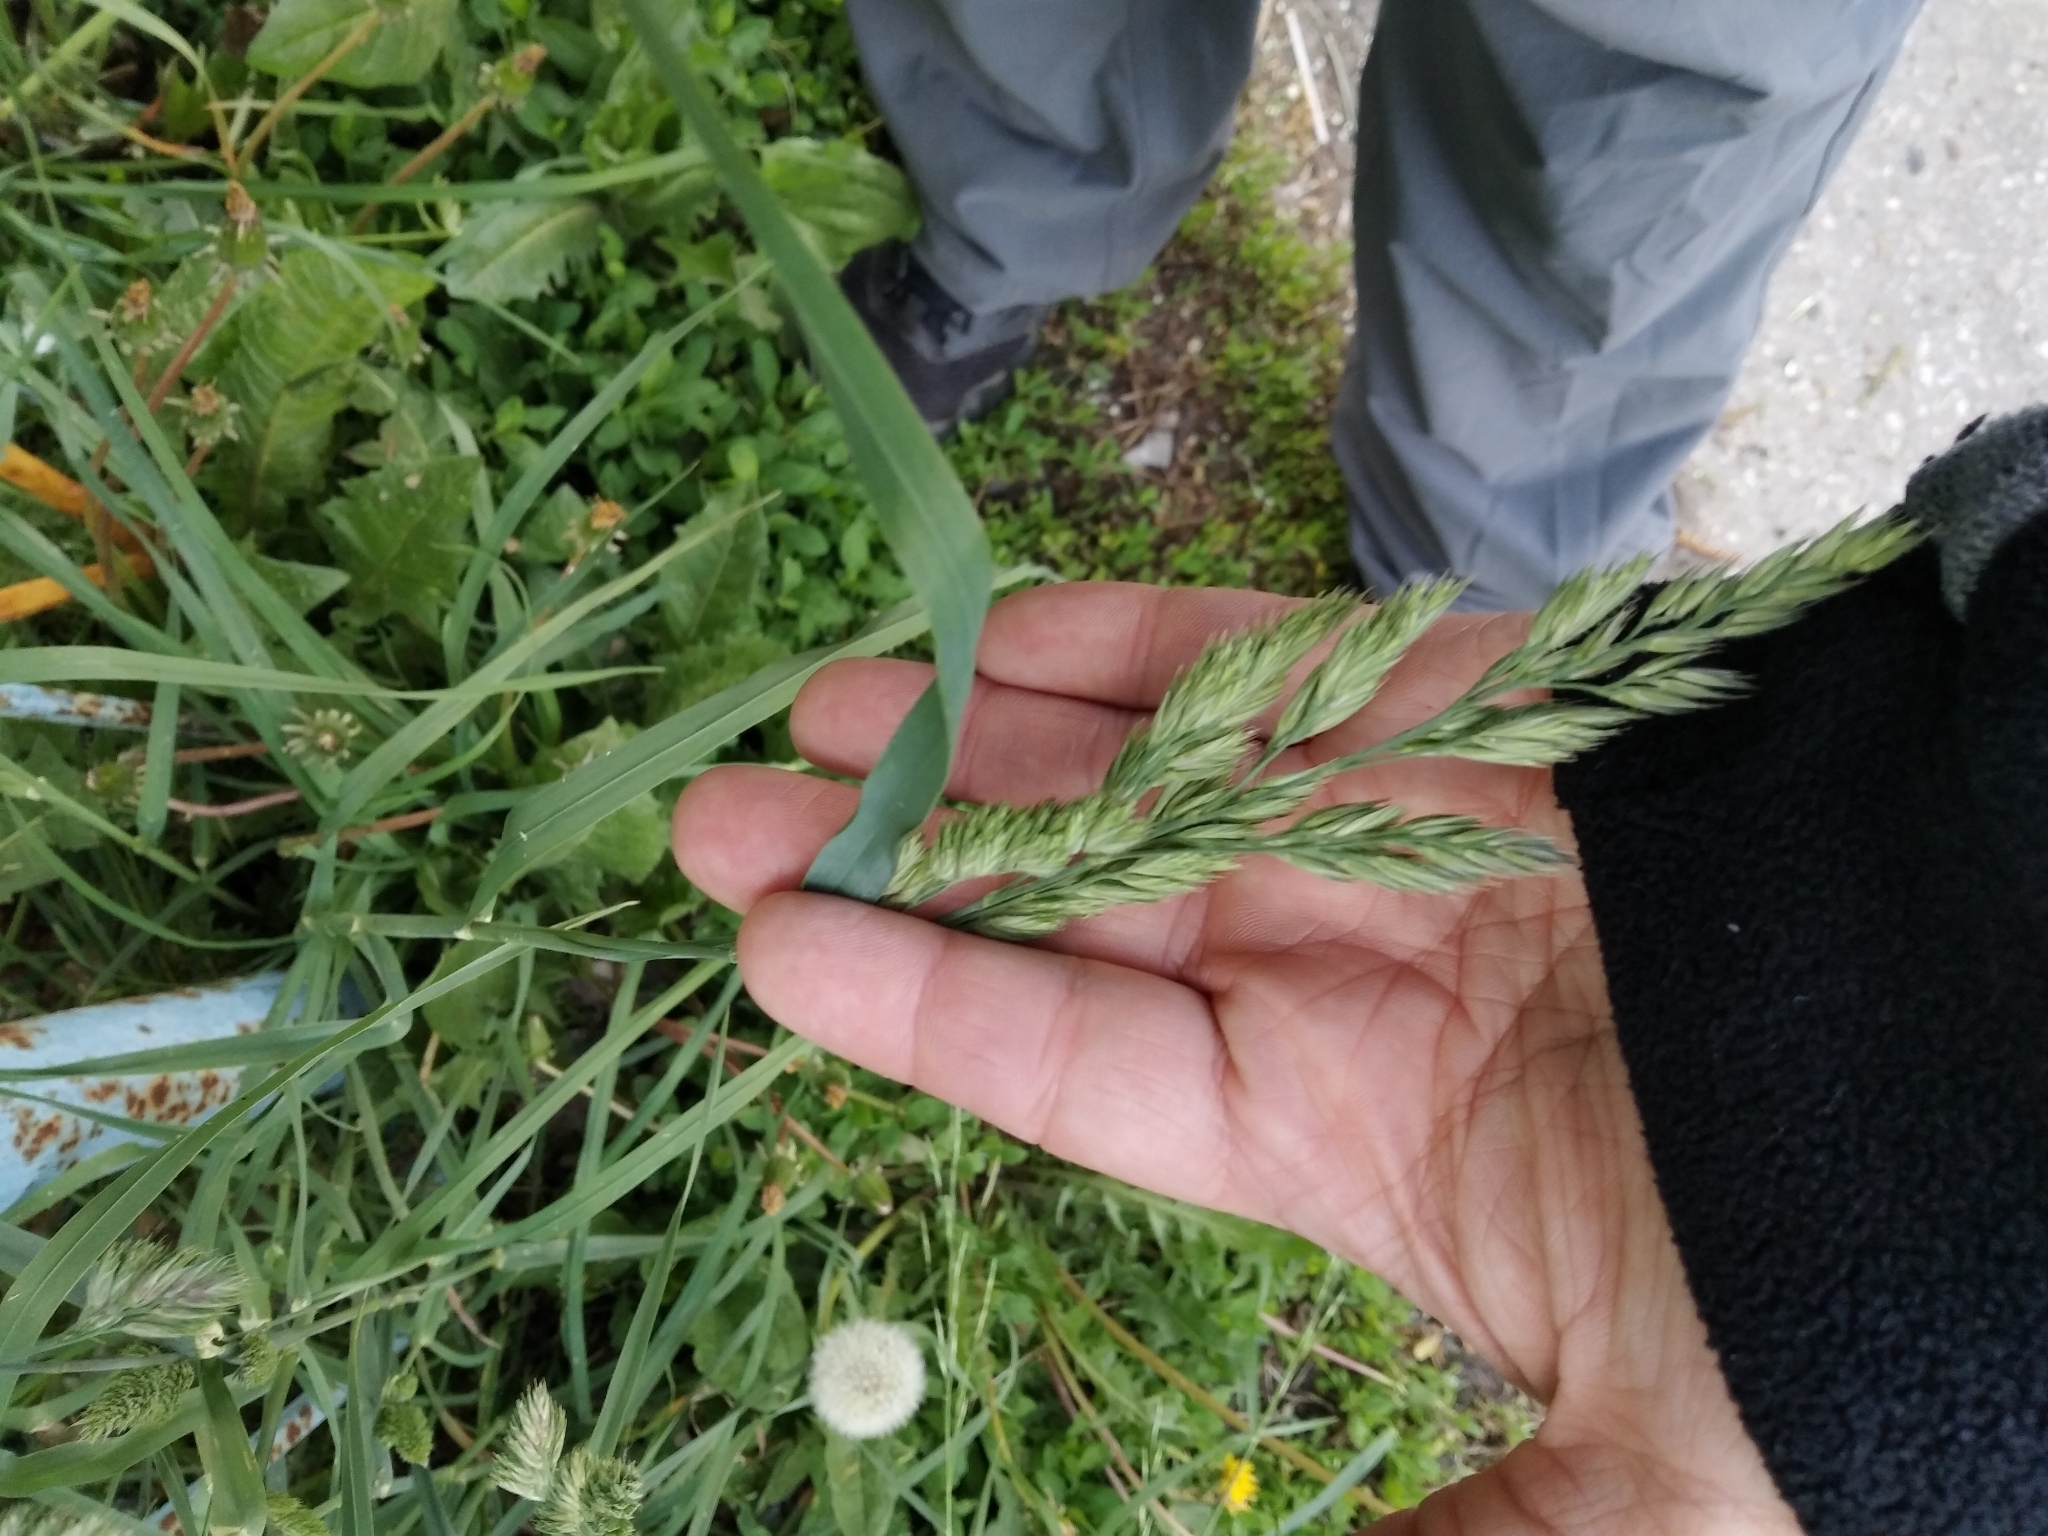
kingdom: Plantae
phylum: Tracheophyta
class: Liliopsida
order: Poales
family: Poaceae
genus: Dactylis
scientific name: Dactylis glomerata
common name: Orchardgrass
